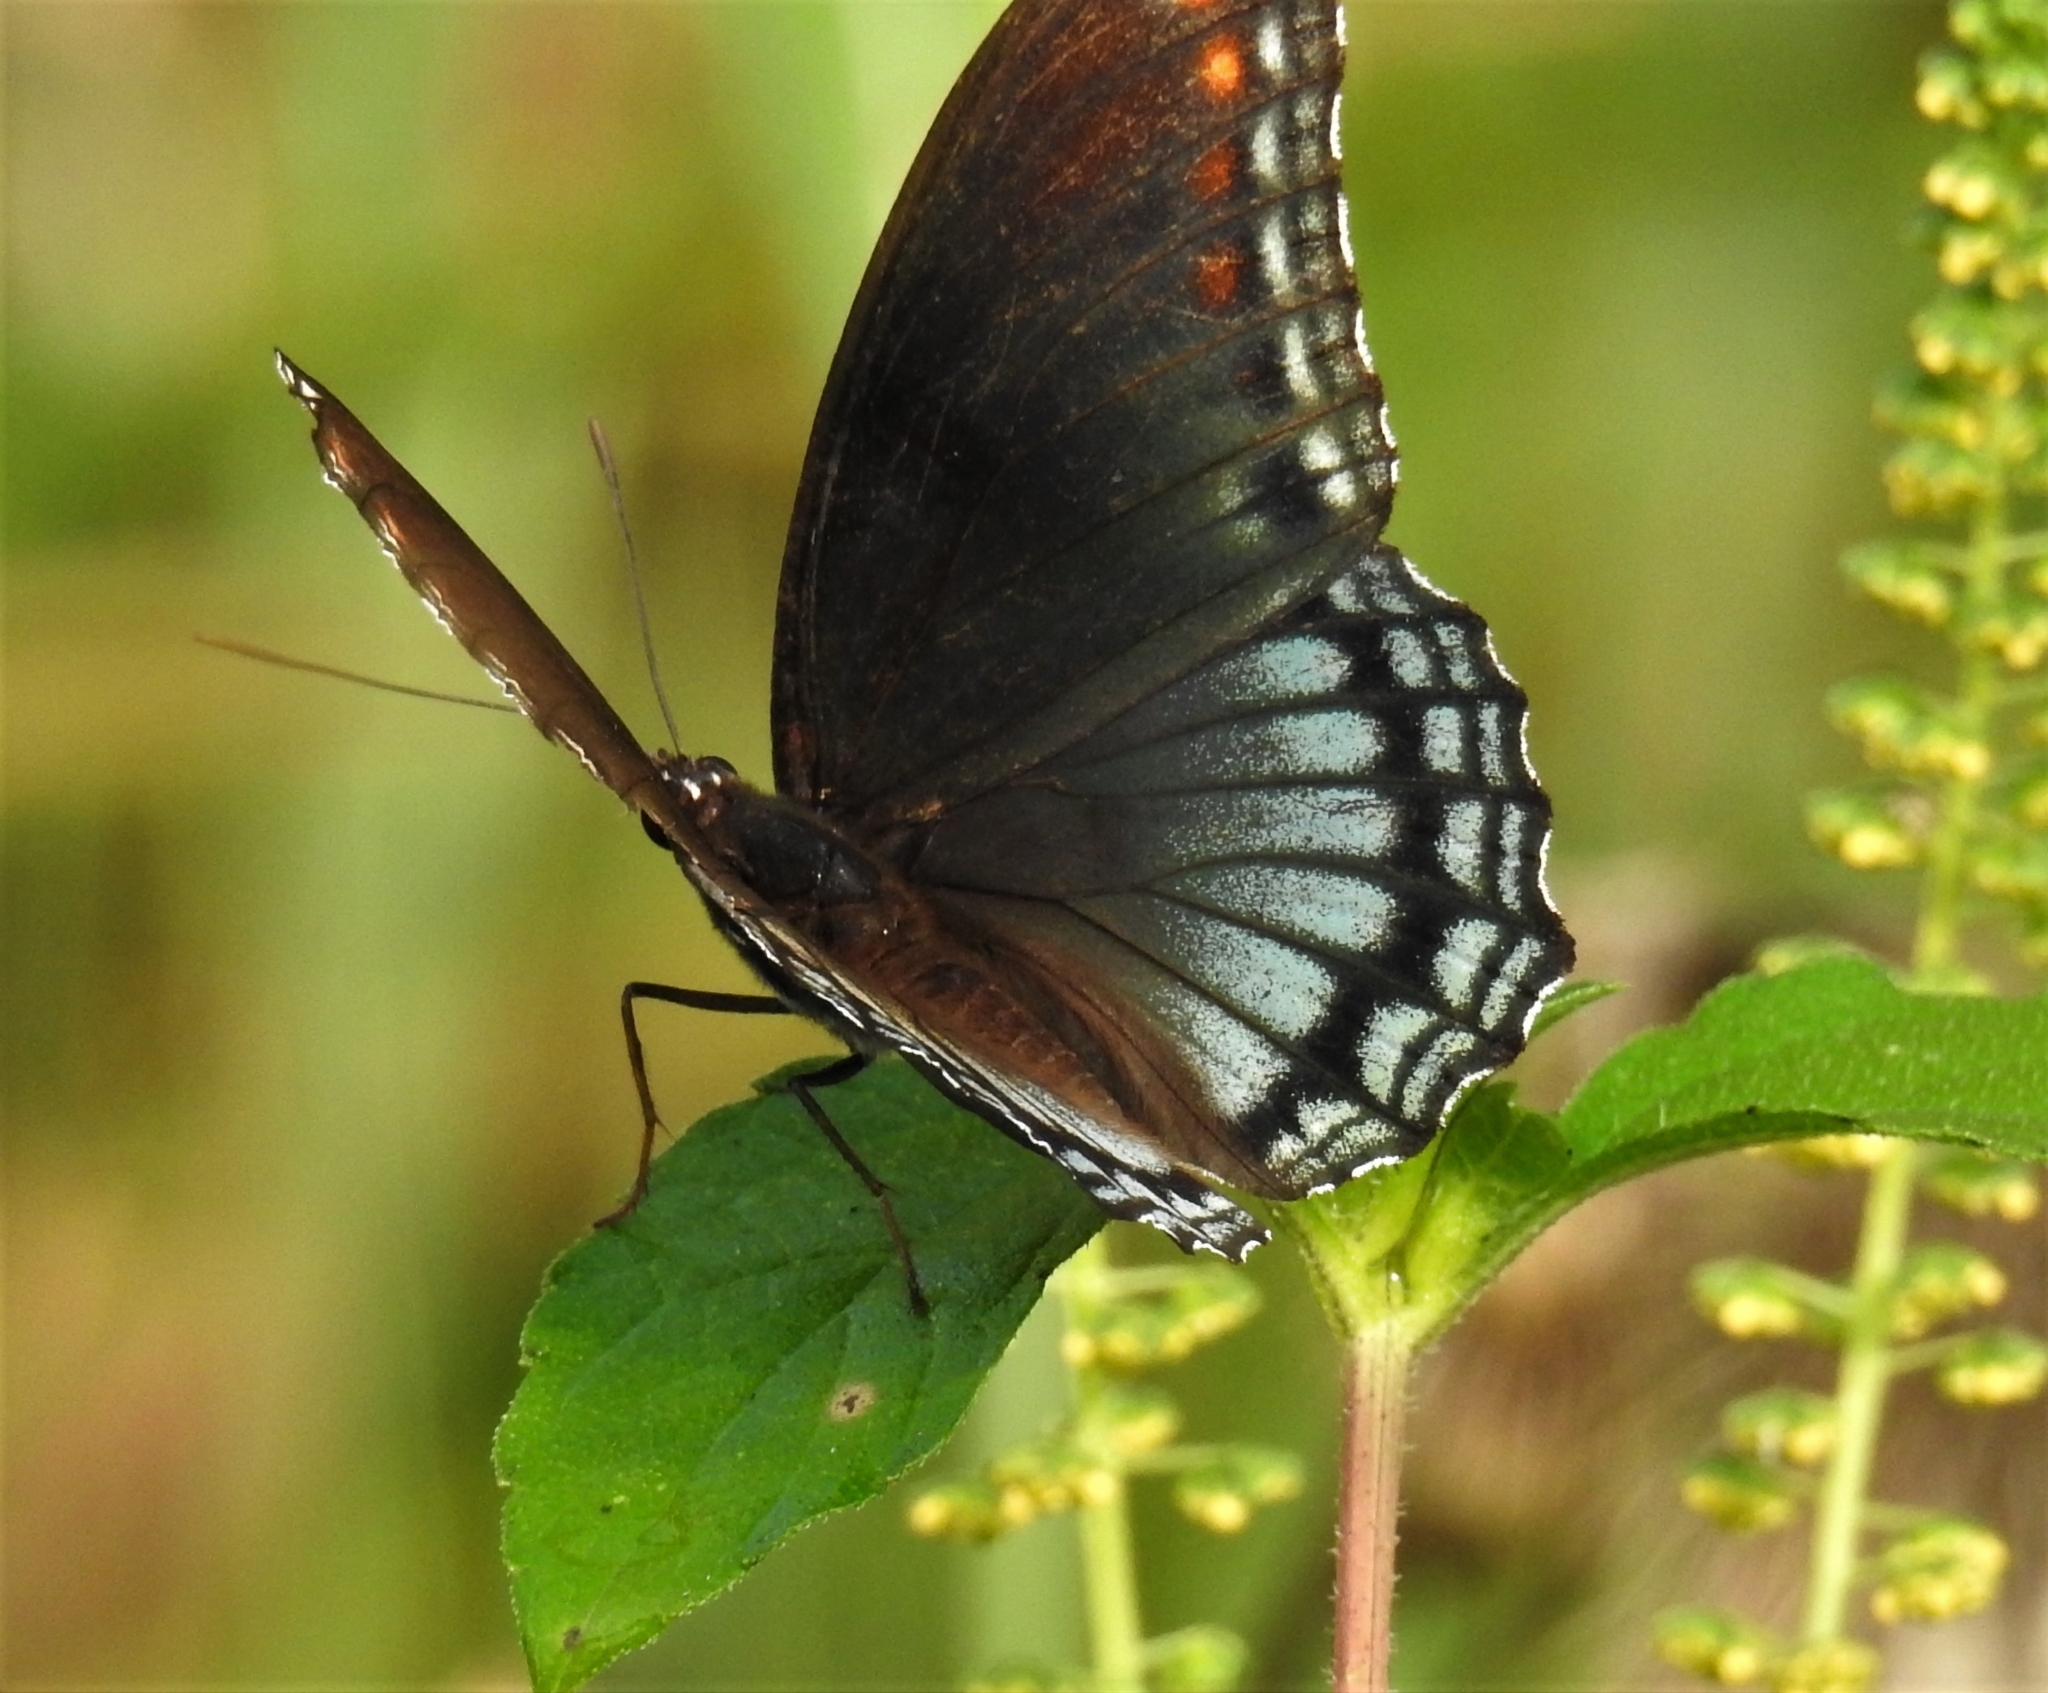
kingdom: Animalia
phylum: Arthropoda
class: Insecta
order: Lepidoptera
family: Nymphalidae
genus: Limenitis
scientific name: Limenitis arthemis
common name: Red-spotted admiral
